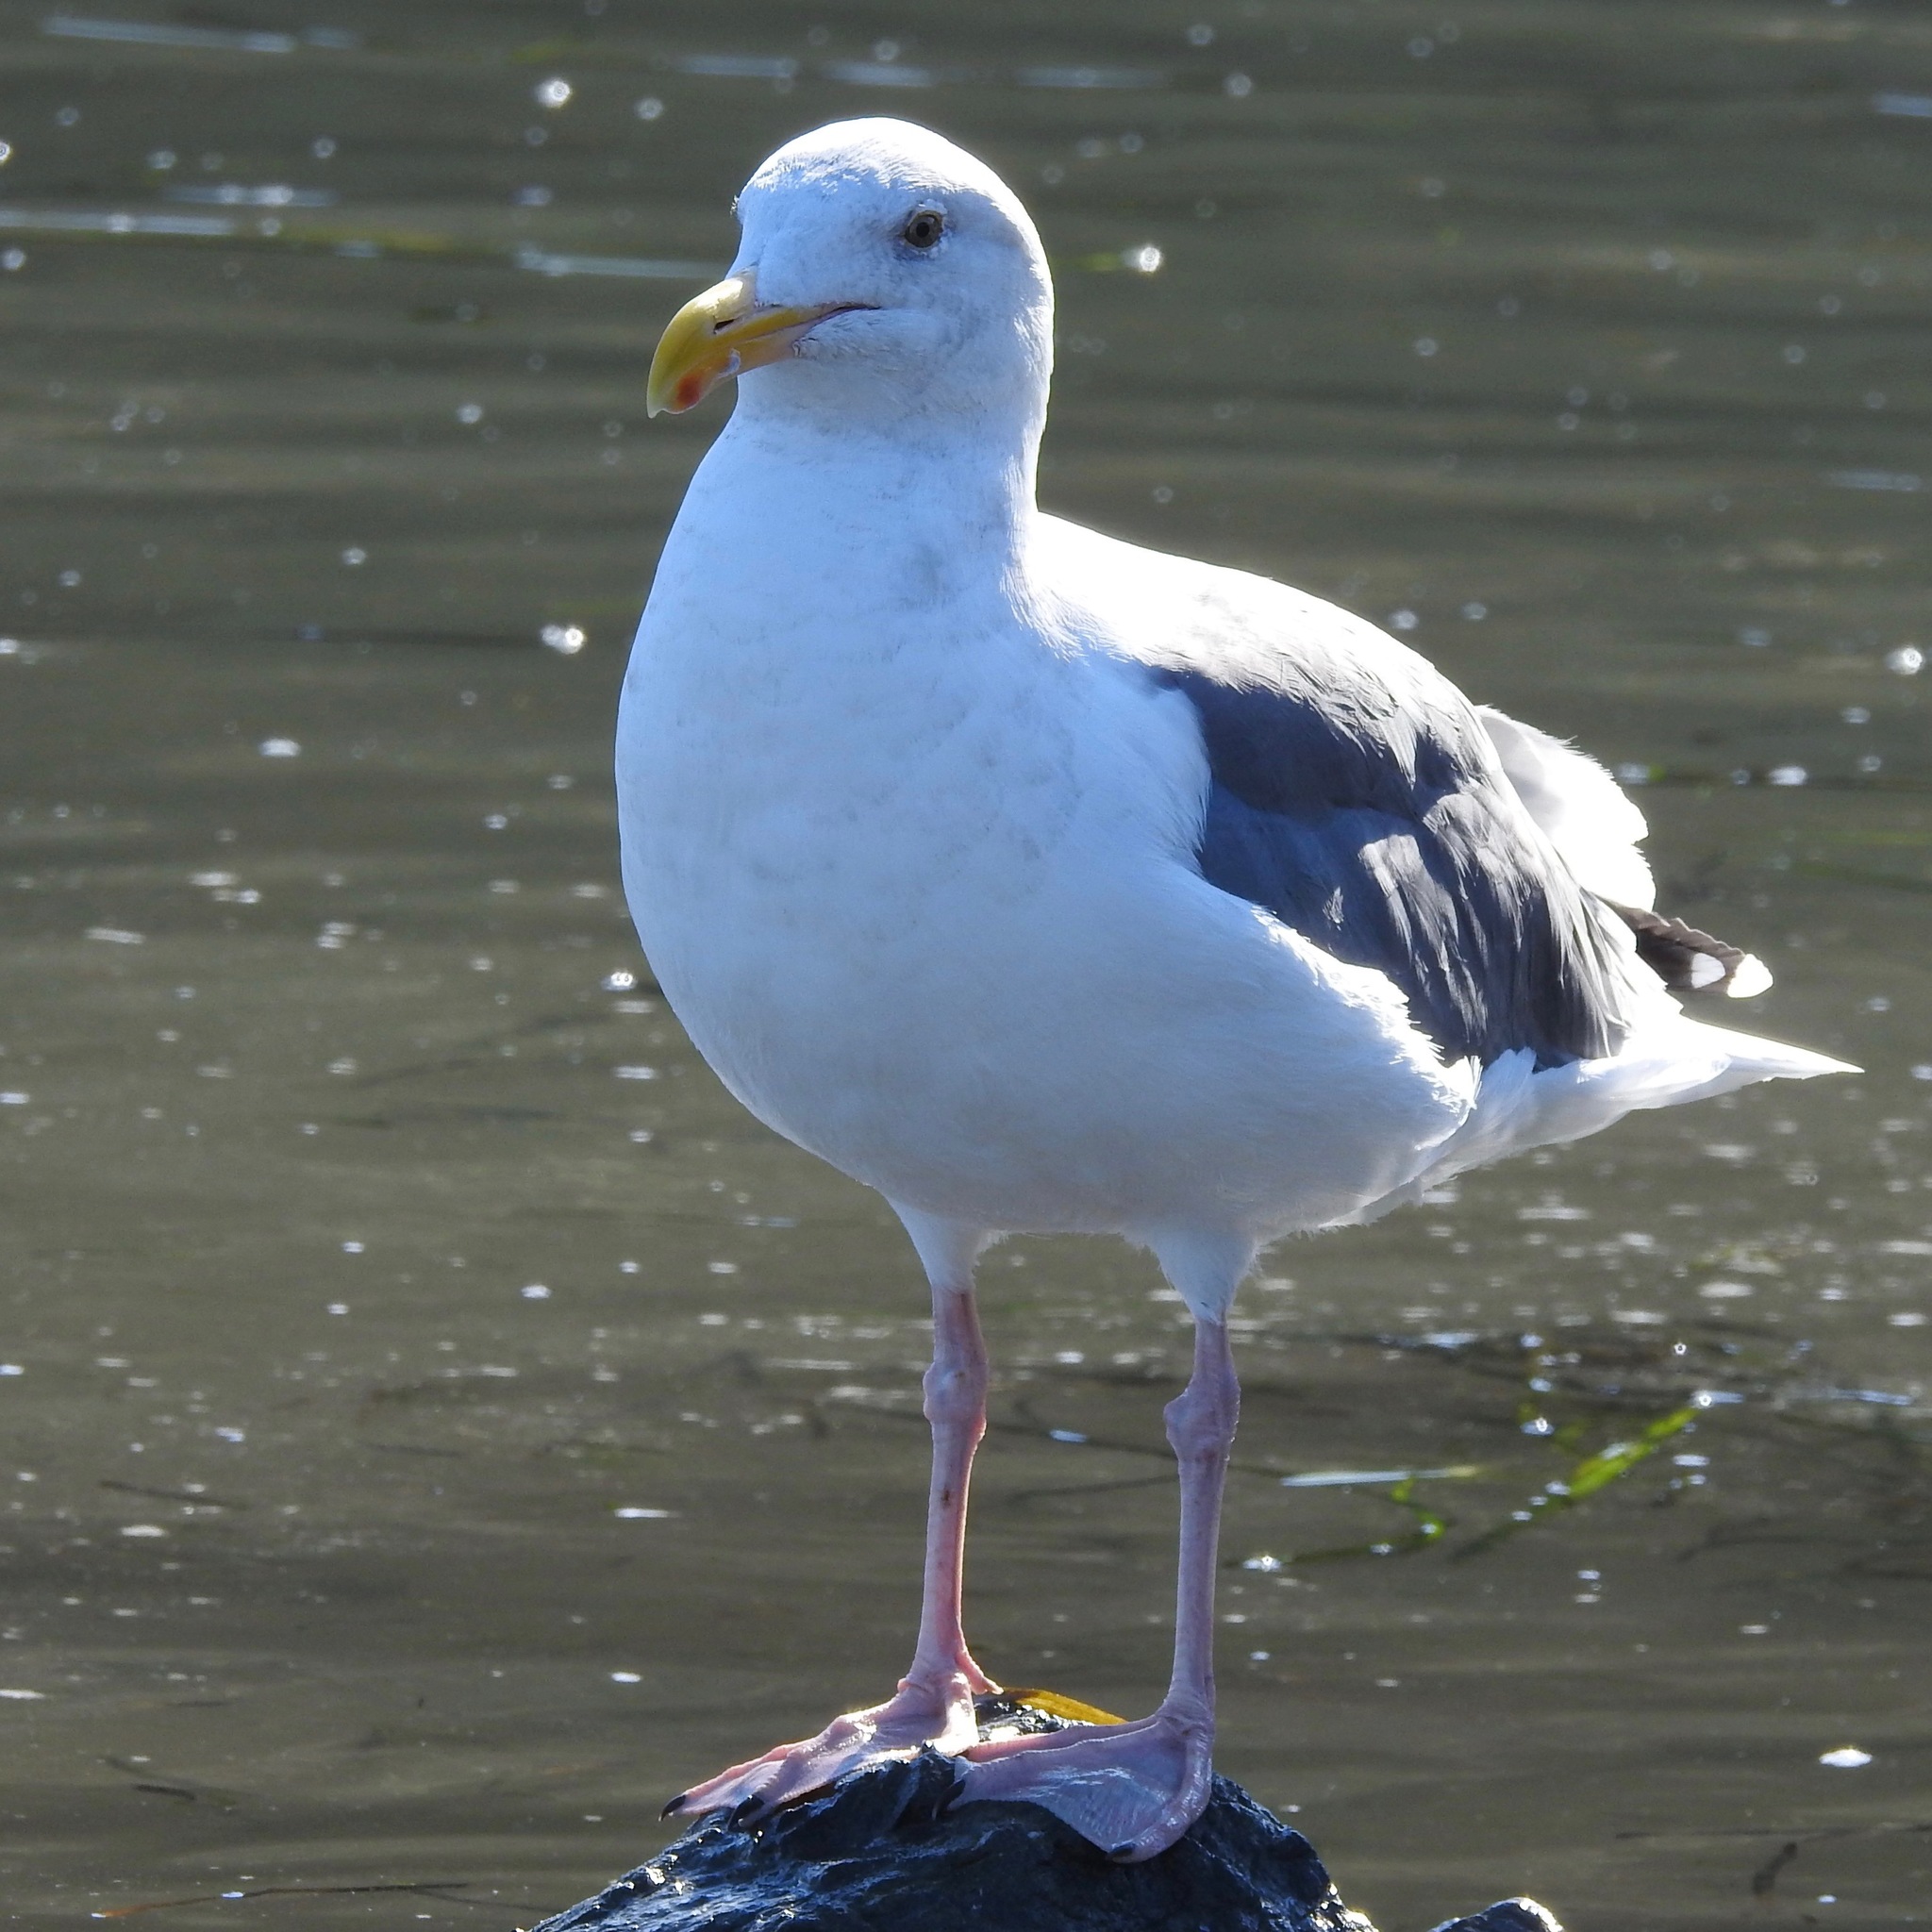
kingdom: Animalia
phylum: Chordata
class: Aves
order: Charadriiformes
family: Laridae
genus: Larus
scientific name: Larus occidentalis
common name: Western gull
